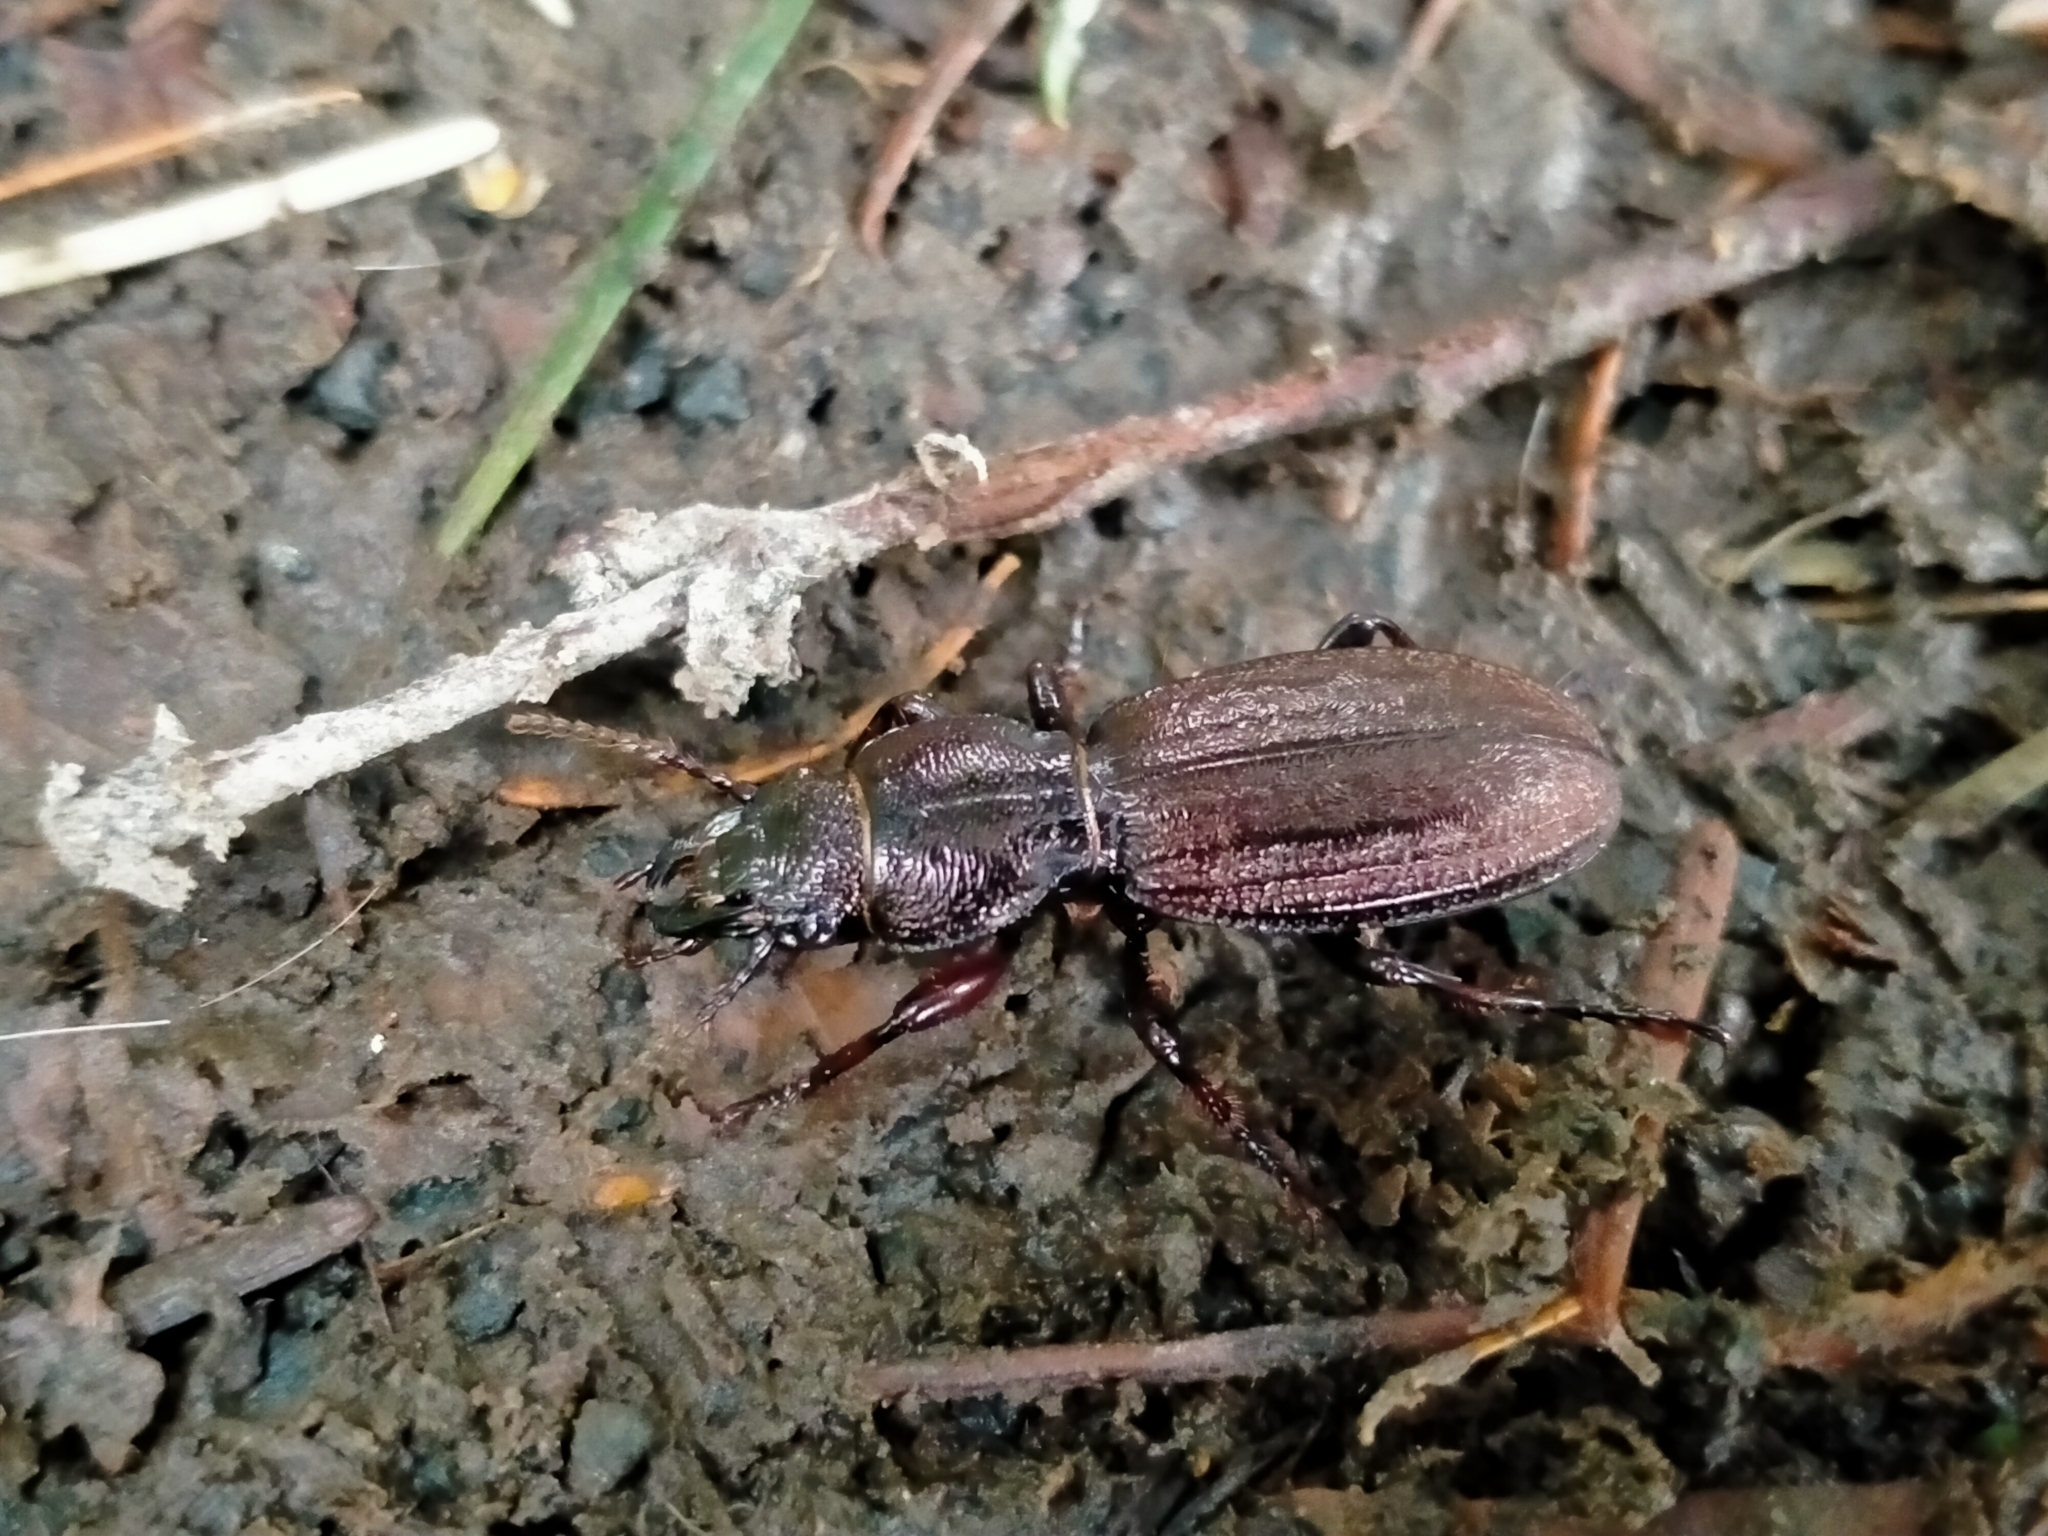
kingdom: Animalia
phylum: Arthropoda
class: Insecta
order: Coleoptera
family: Carabidae
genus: Mecodema
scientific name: Mecodema sculpturatum
